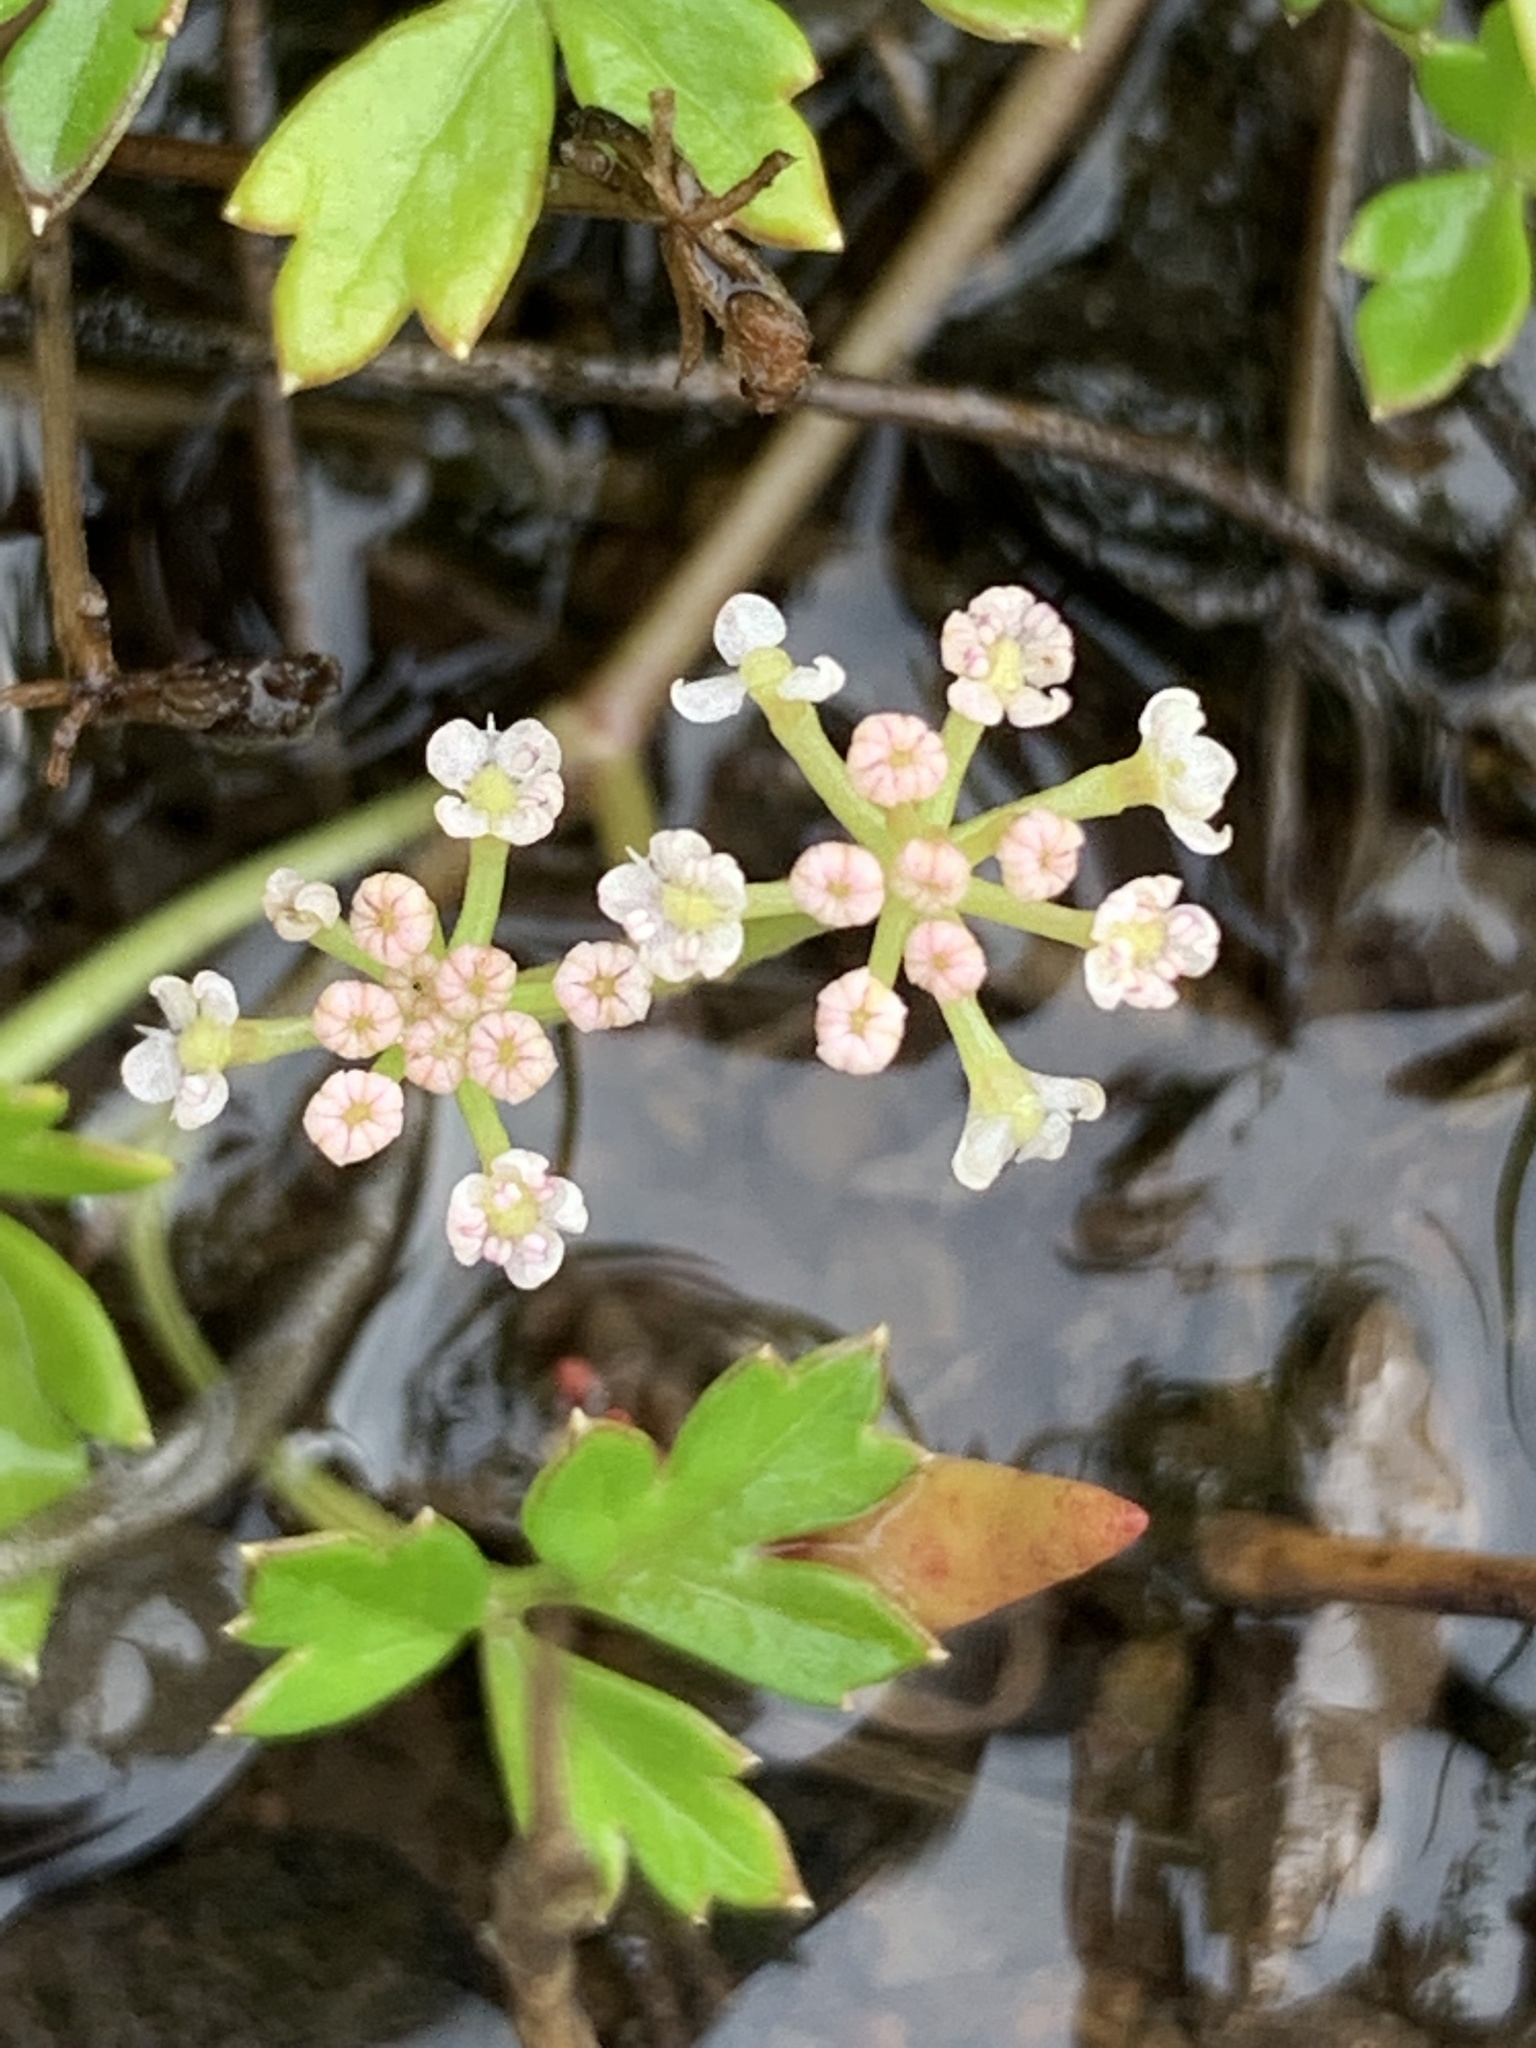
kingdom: Plantae
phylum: Tracheophyta
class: Magnoliopsida
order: Apiales
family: Apiaceae
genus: Apium
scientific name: Apium prostratum
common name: Prostrate marshwort
